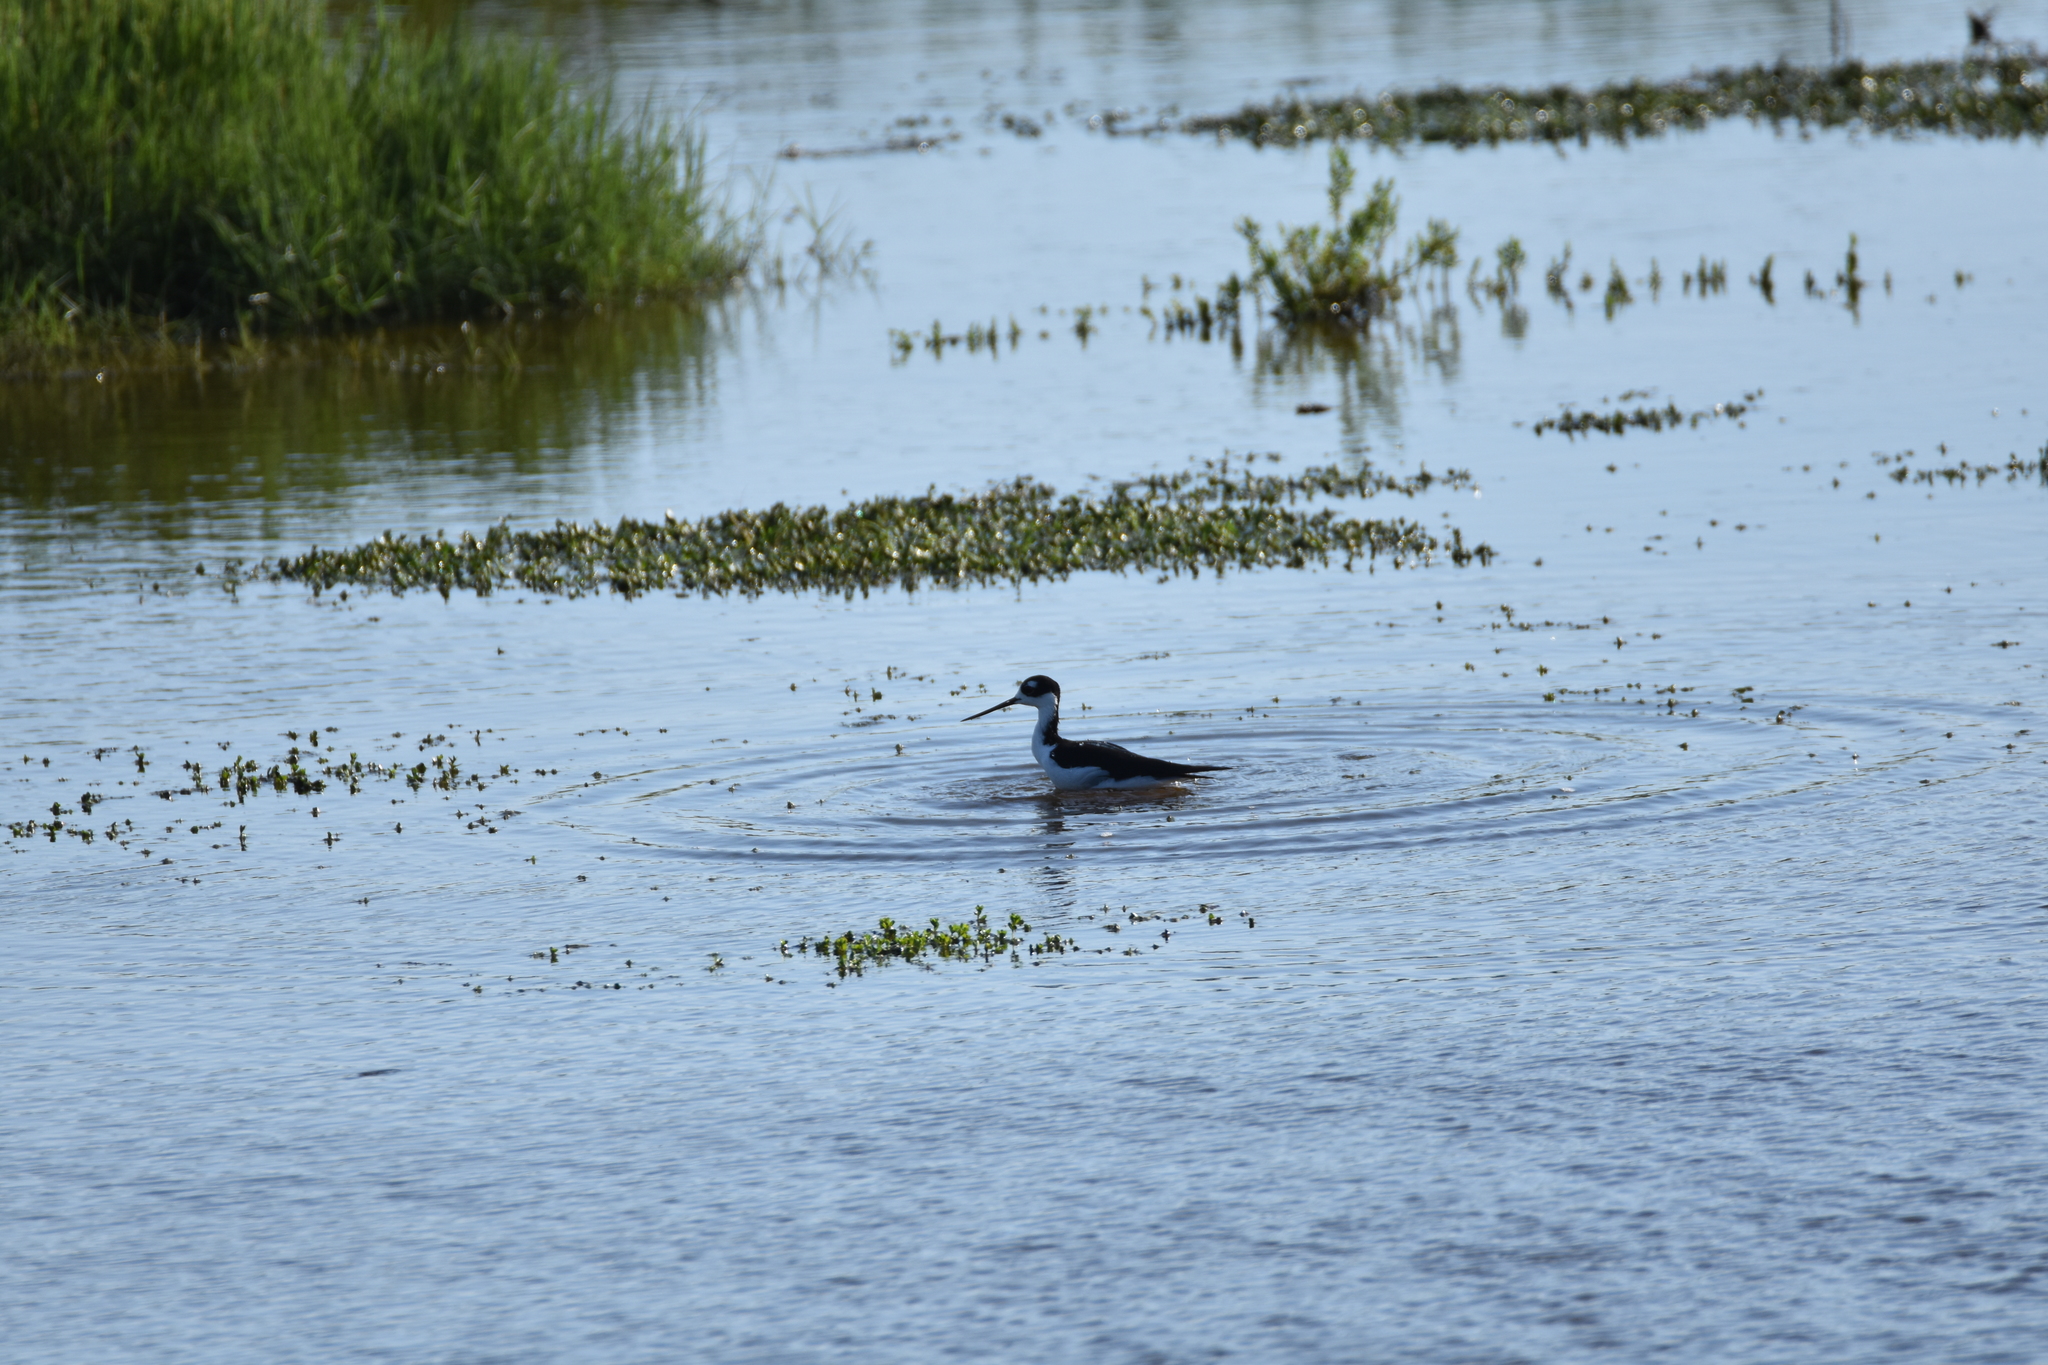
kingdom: Animalia
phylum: Chordata
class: Aves
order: Charadriiformes
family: Recurvirostridae
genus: Himantopus
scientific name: Himantopus mexicanus
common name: Black-necked stilt
